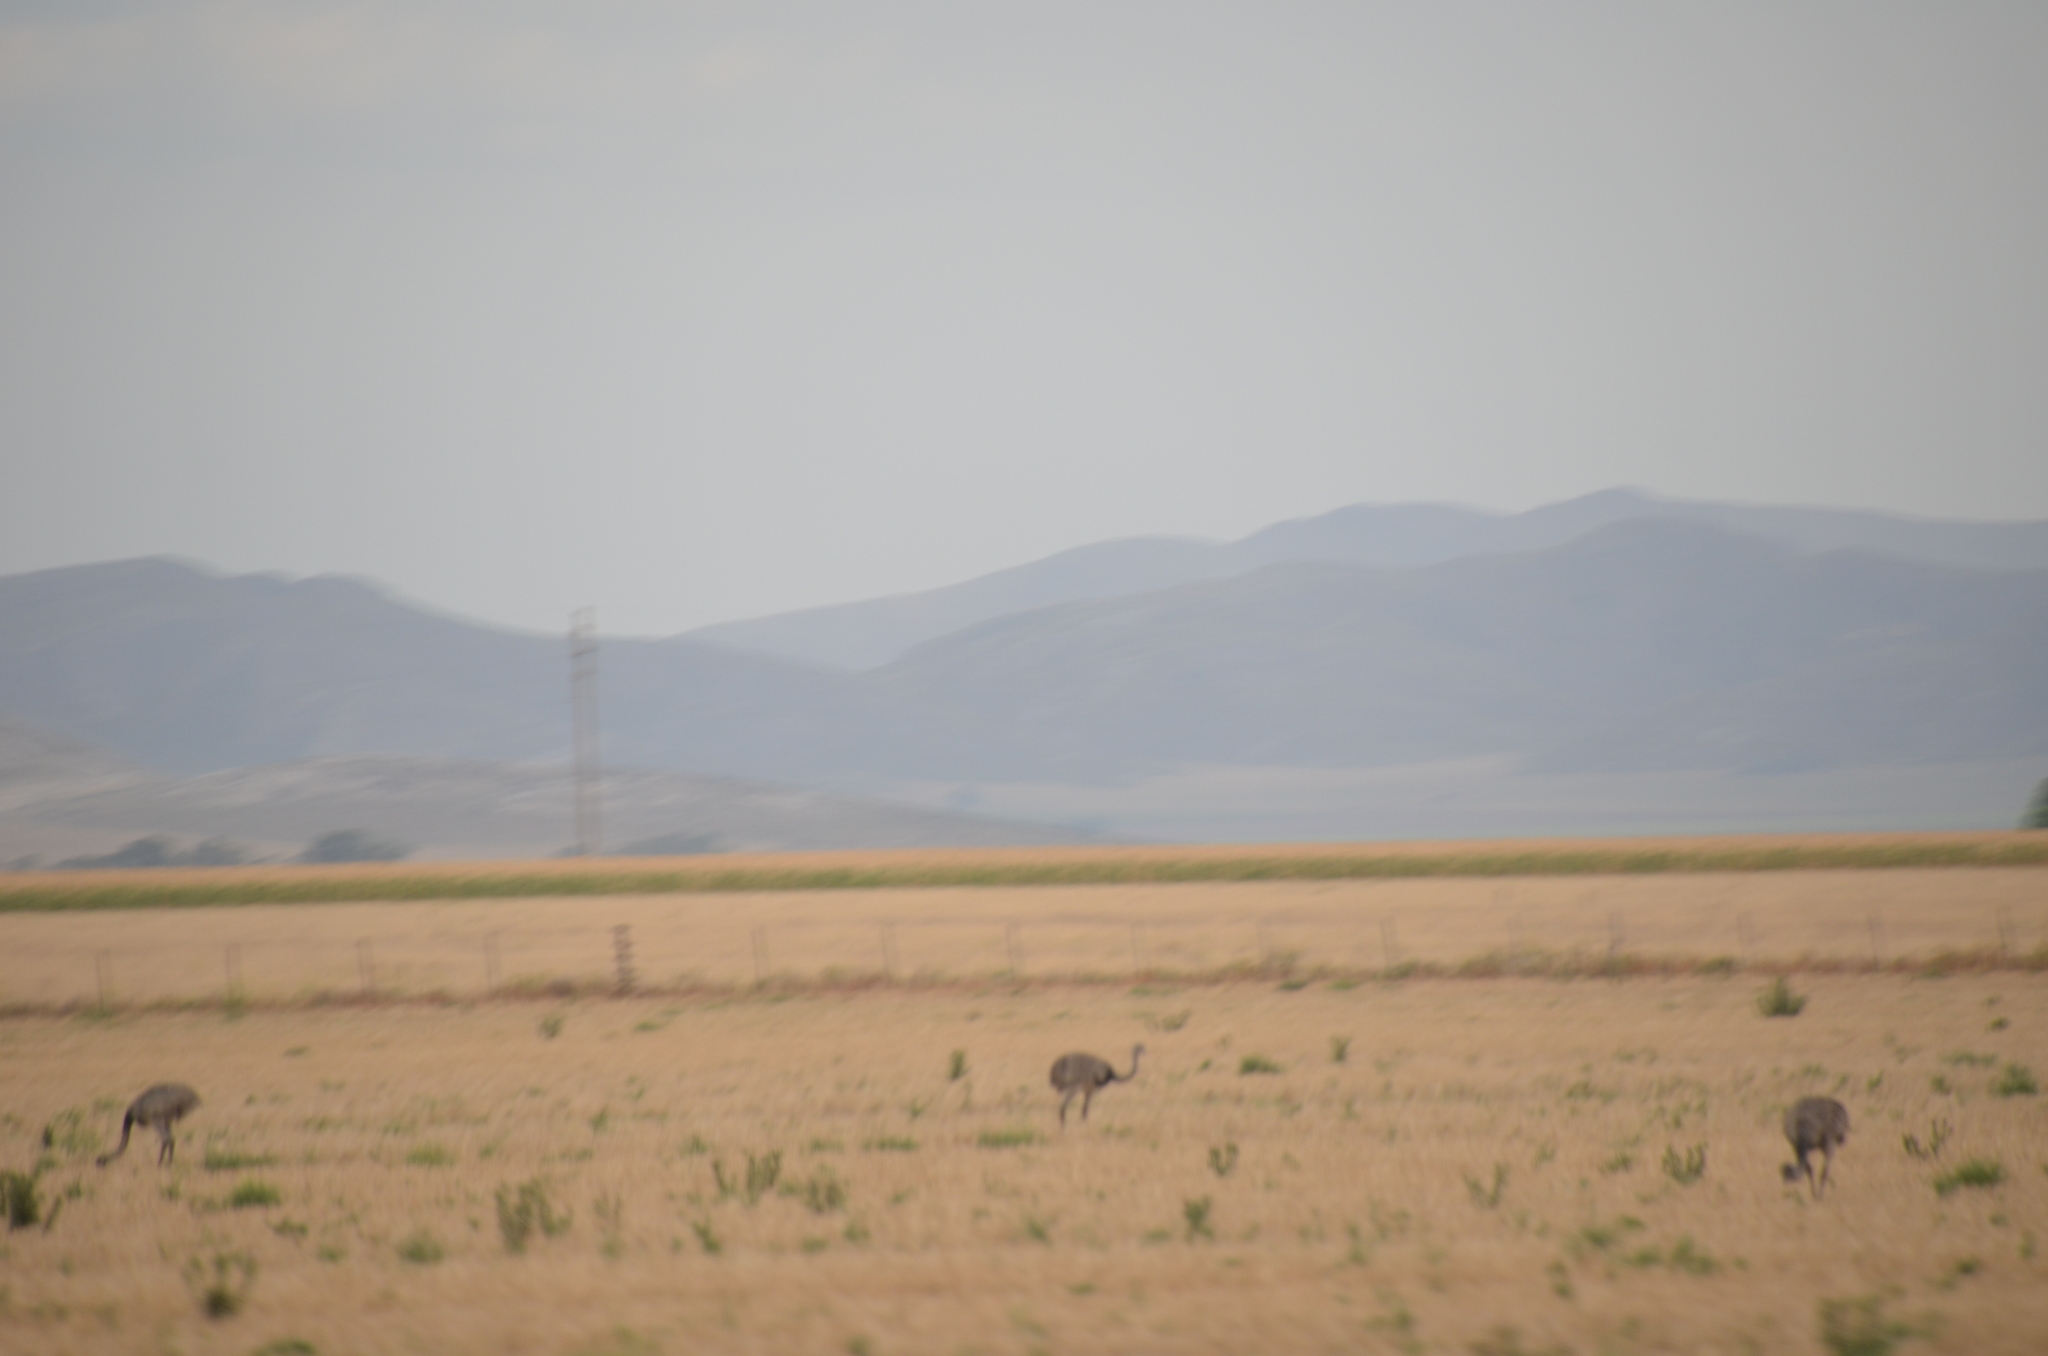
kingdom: Animalia
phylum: Chordata
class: Aves
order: Rheiformes
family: Rheidae
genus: Rhea
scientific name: Rhea americana
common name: Greater rhea
